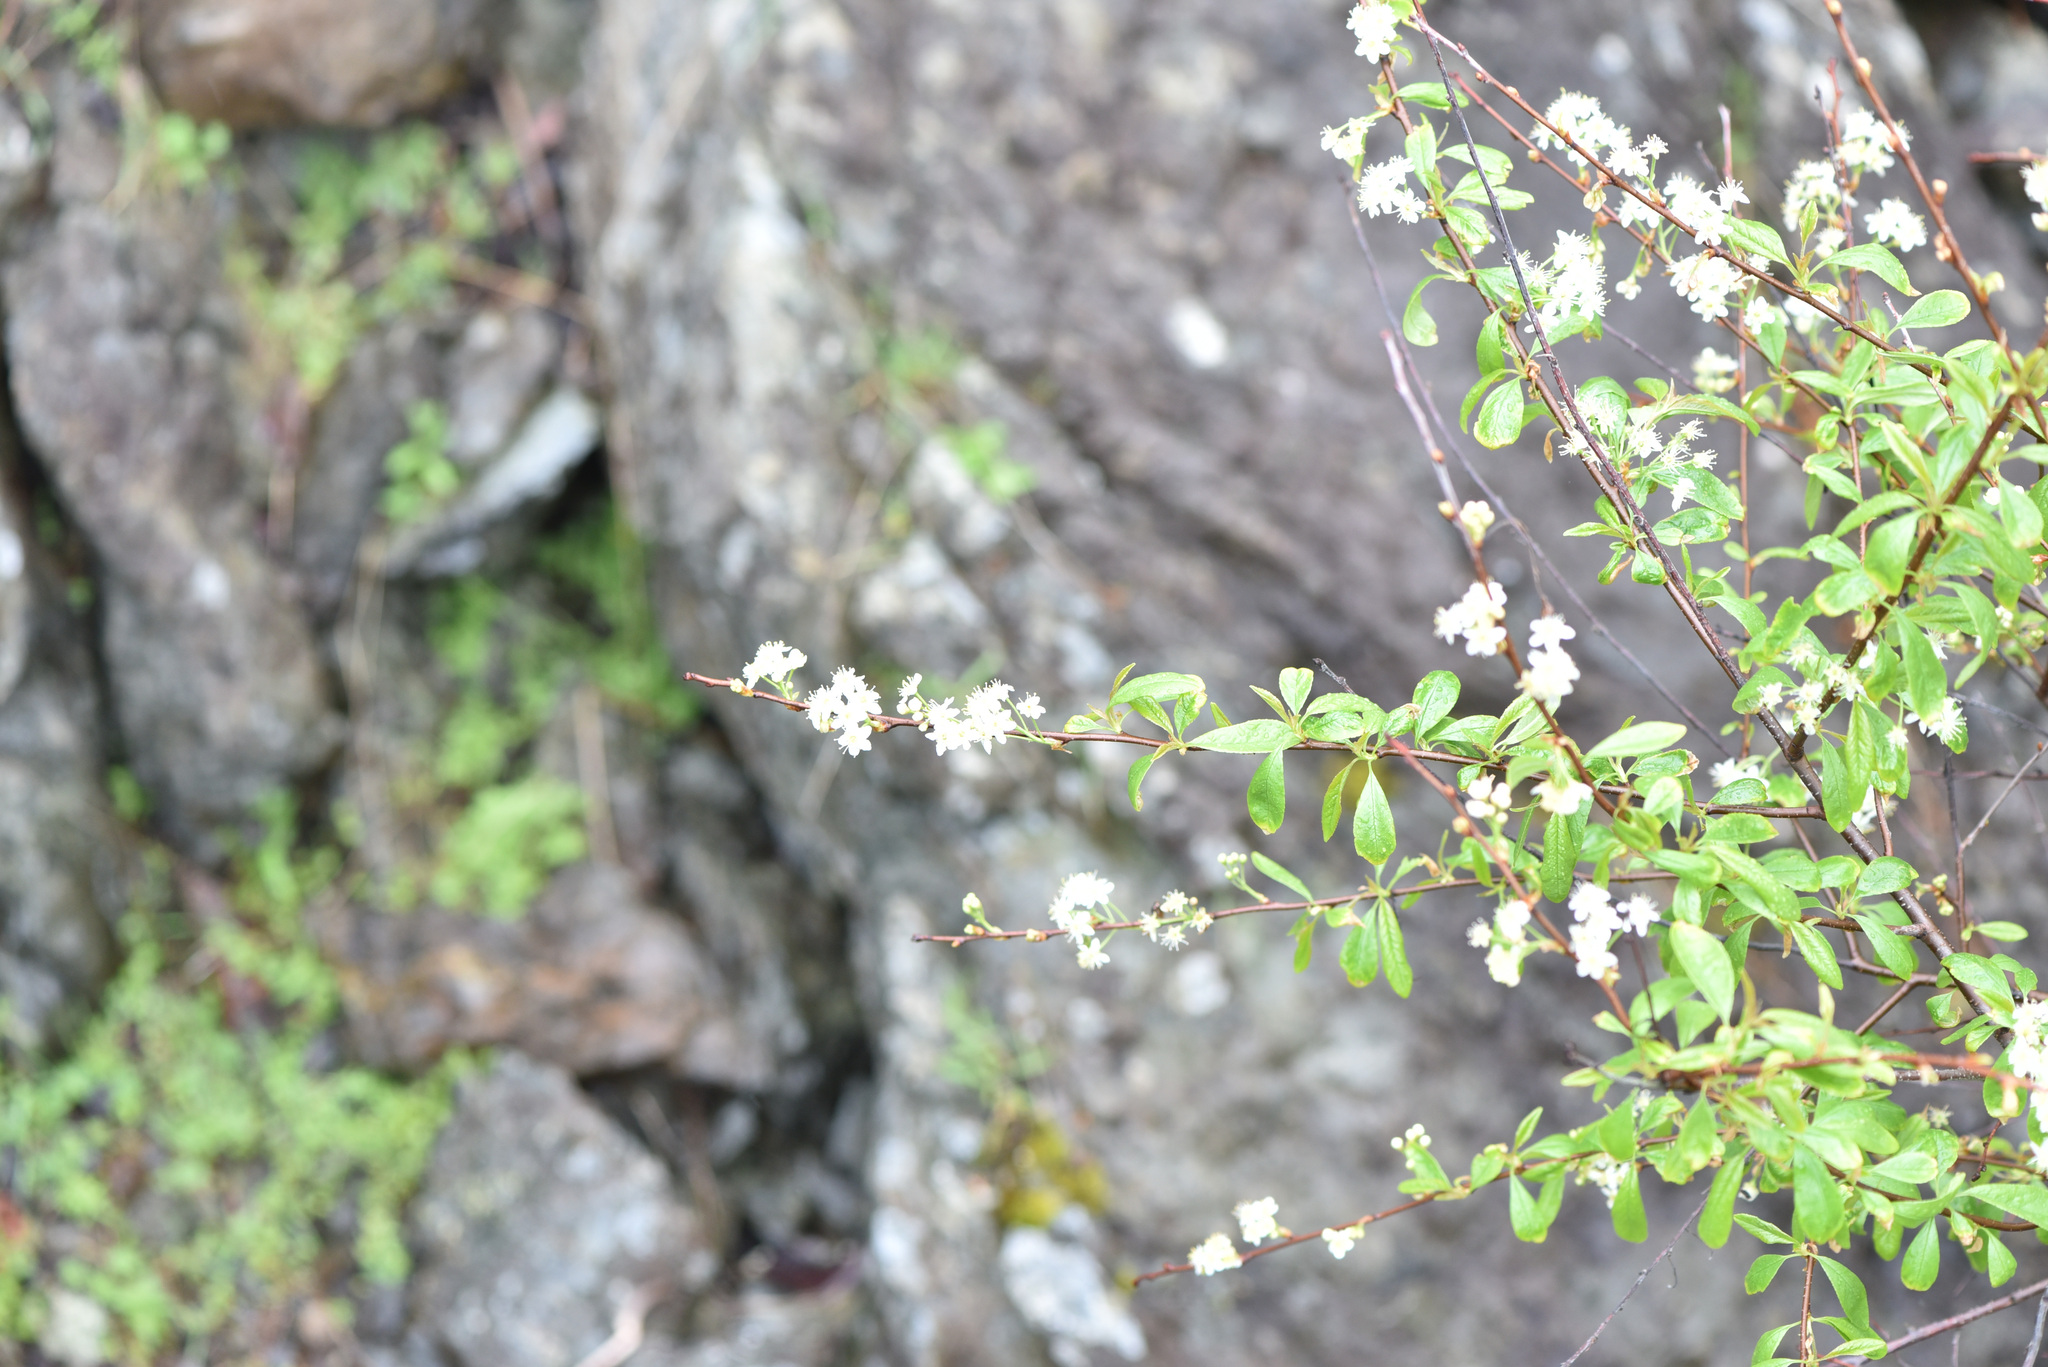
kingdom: Plantae
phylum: Tracheophyta
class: Magnoliopsida
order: Rosales
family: Rosaceae
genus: Prunus
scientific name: Prunus emarginata
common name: Bitter cherry
